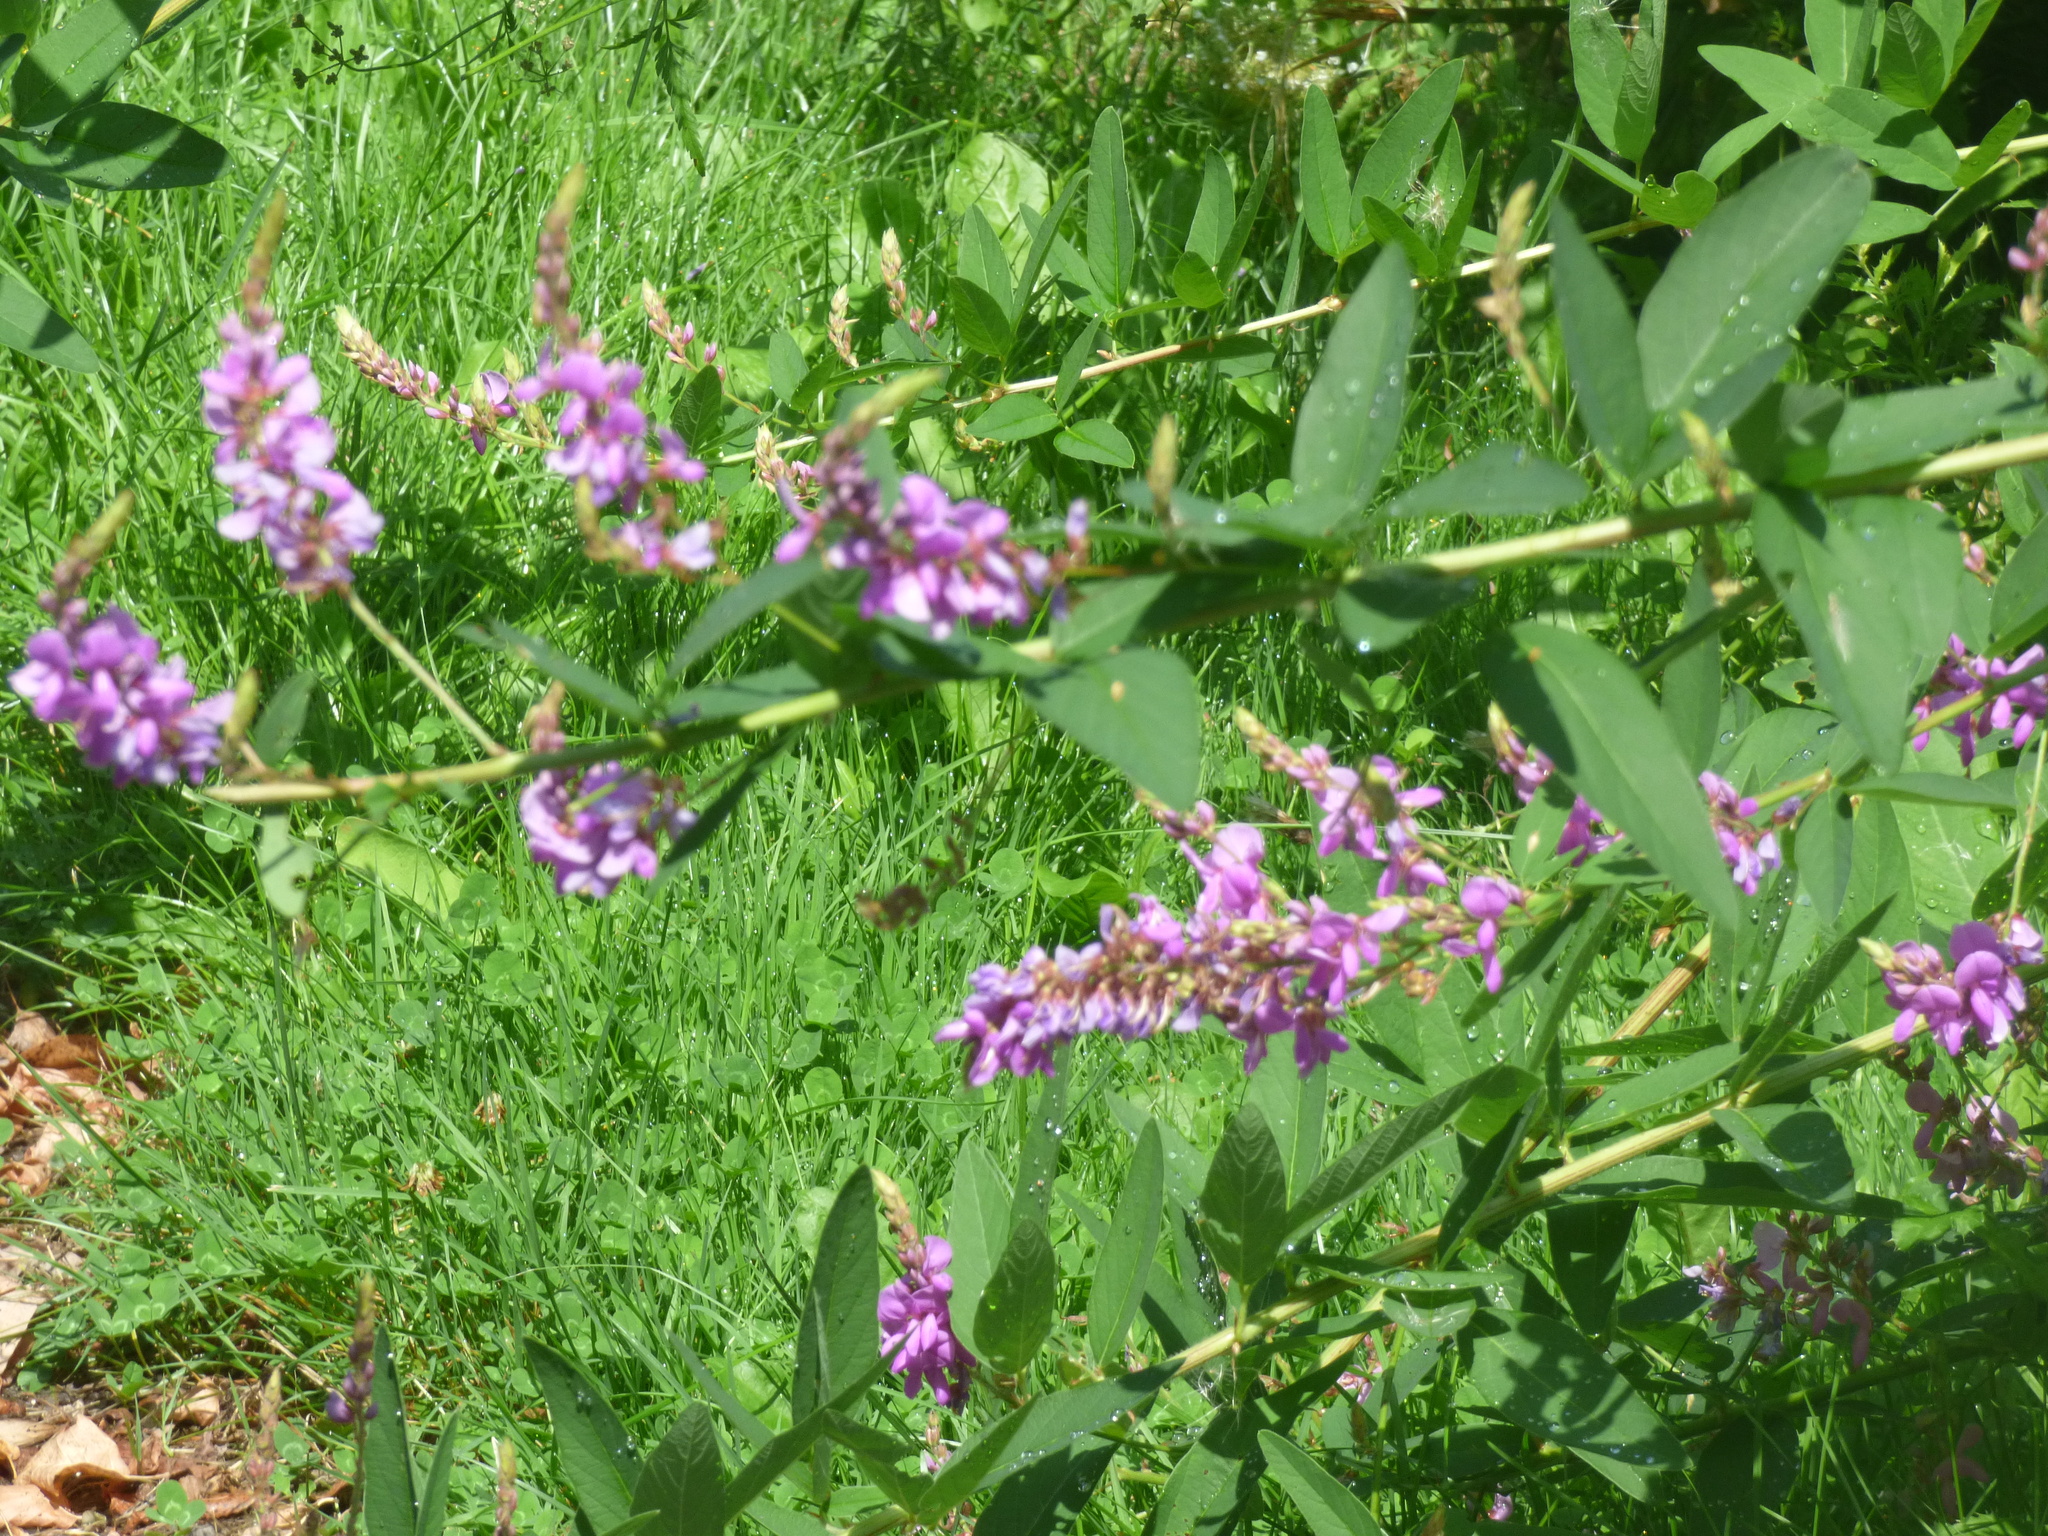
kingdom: Plantae
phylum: Tracheophyta
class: Magnoliopsida
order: Fabales
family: Fabaceae
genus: Desmodium
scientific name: Desmodium canadense
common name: Canada tick-trefoil
